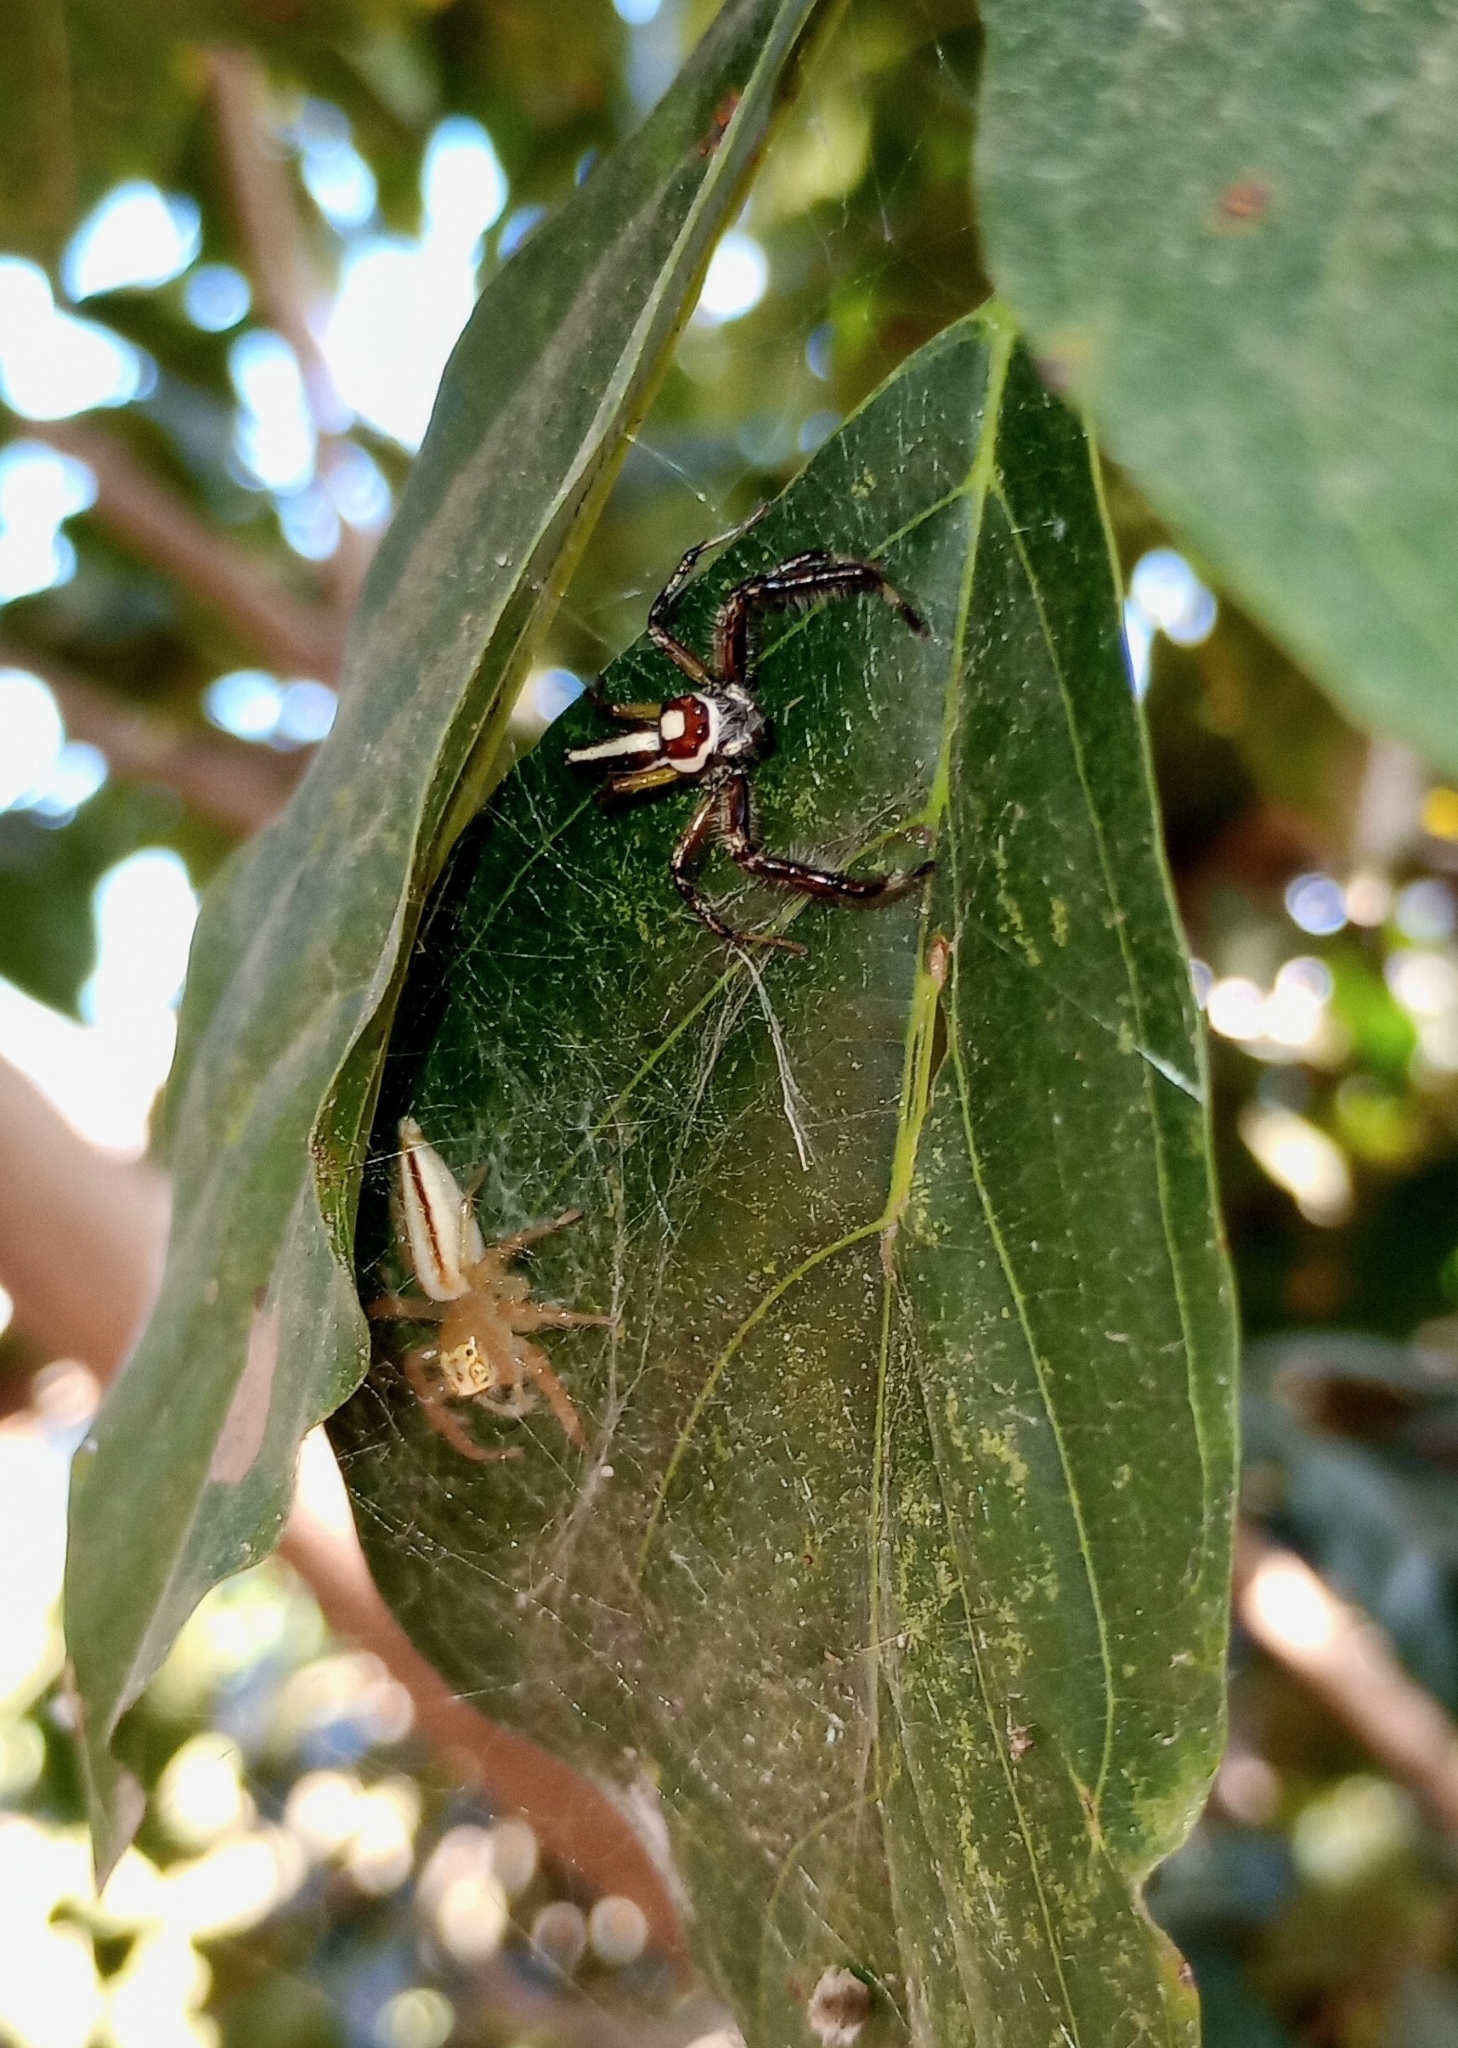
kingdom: Animalia
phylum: Arthropoda
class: Arachnida
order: Araneae
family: Salticidae
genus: Telamonia
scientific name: Telamonia dimidiata
